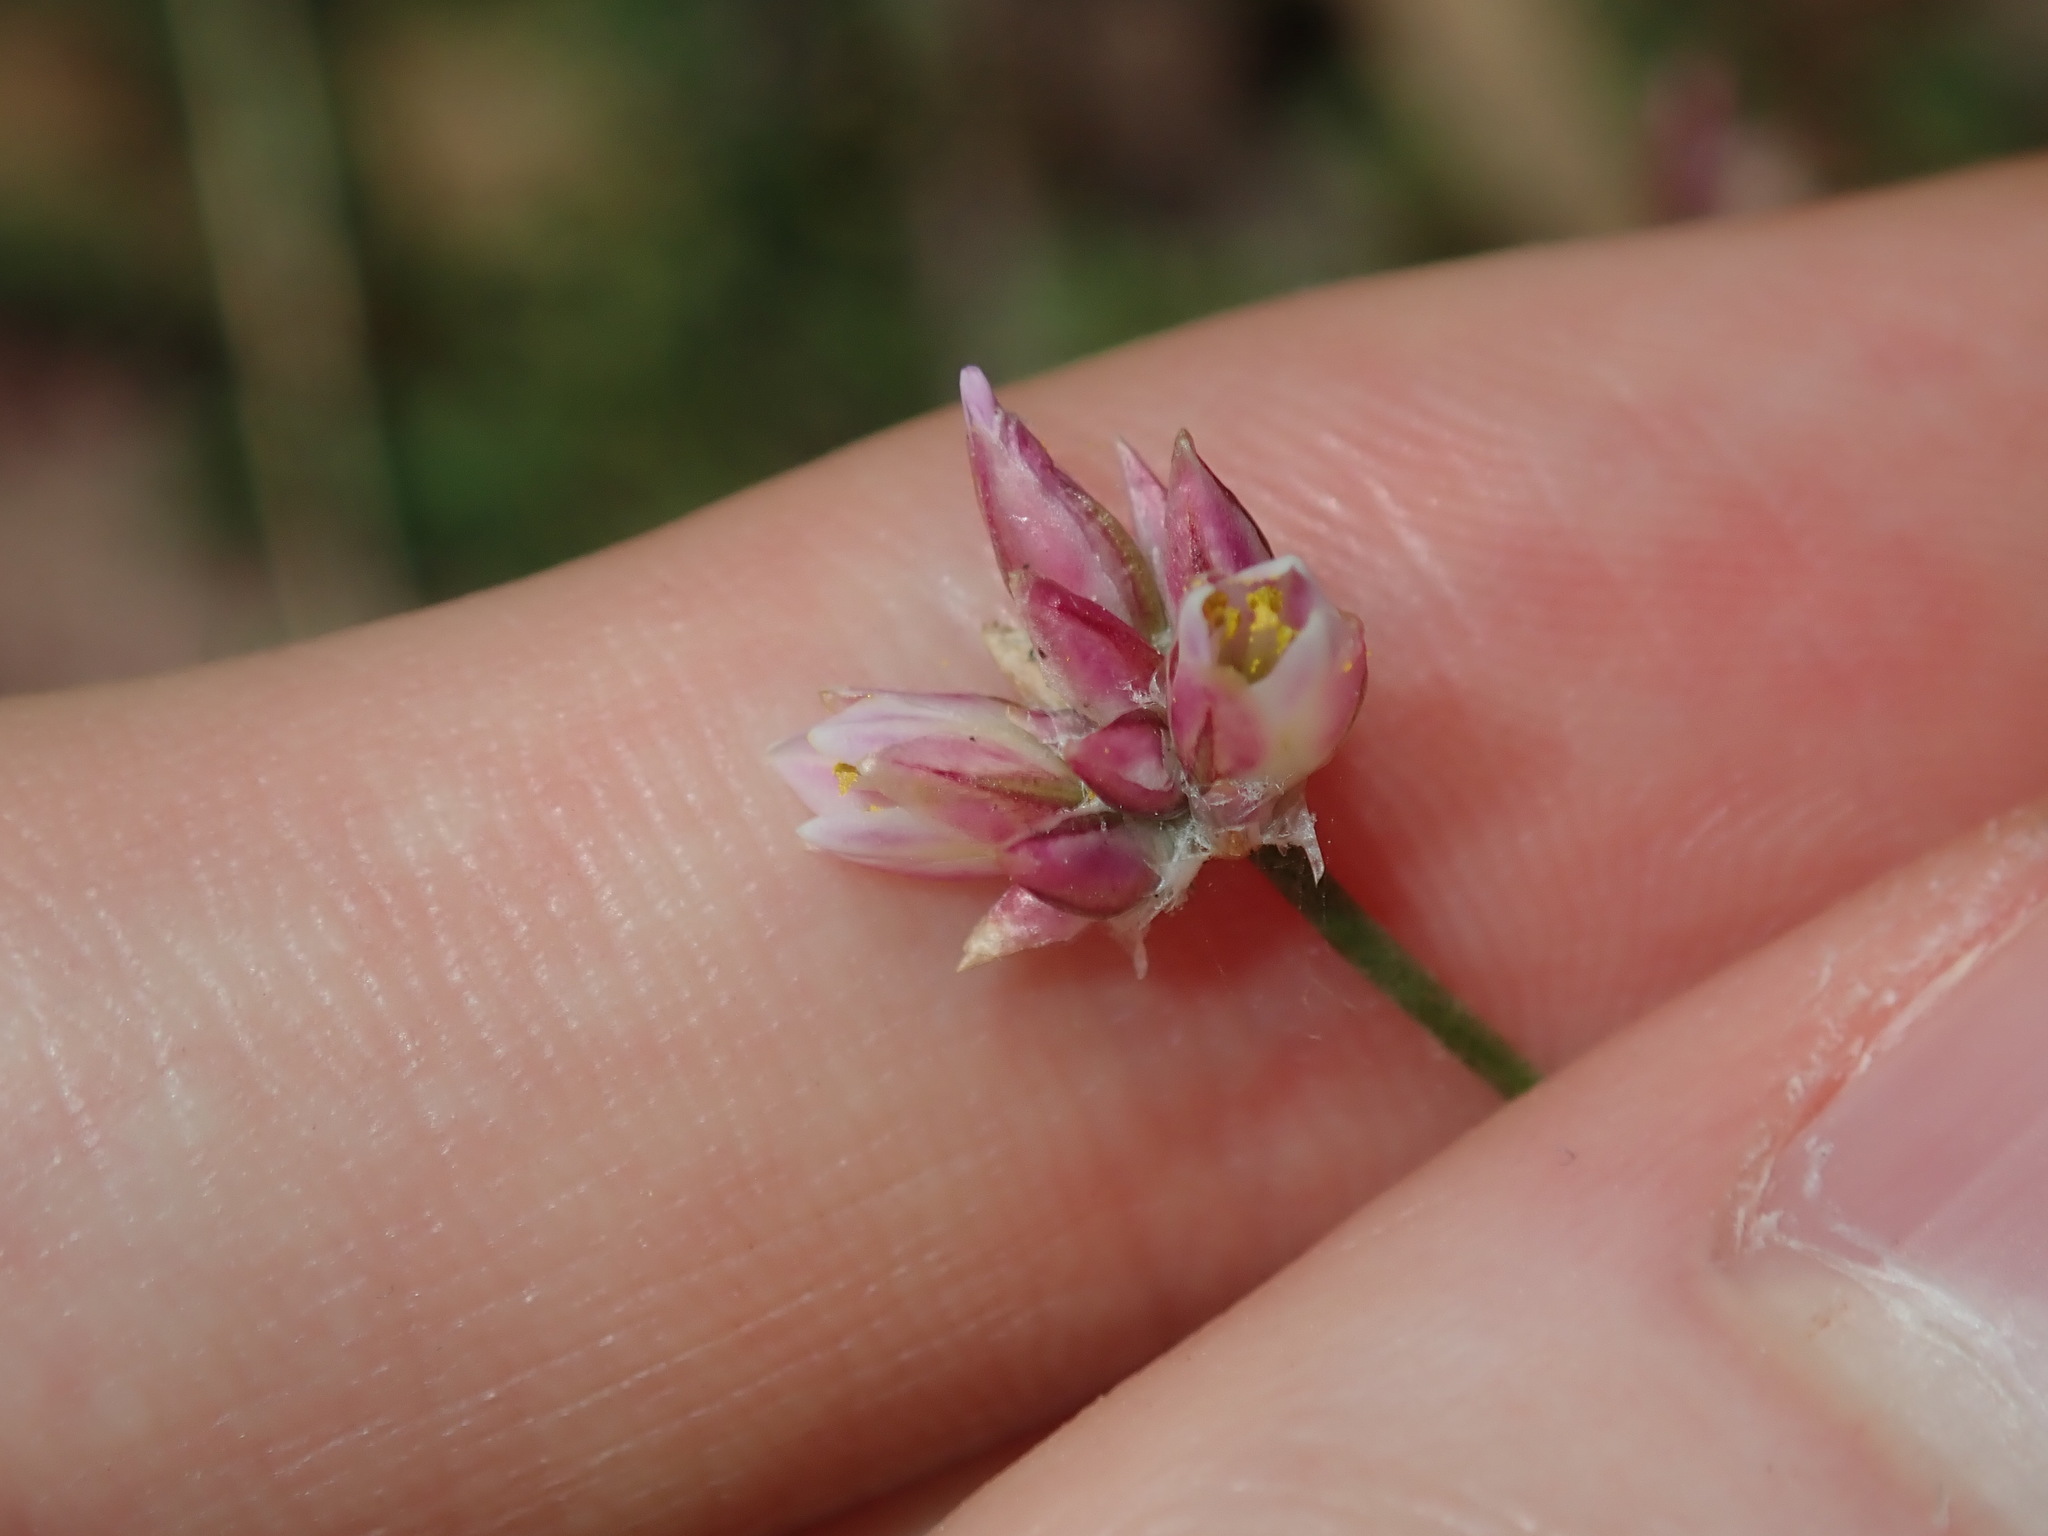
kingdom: Plantae
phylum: Tracheophyta
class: Liliopsida
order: Asparagales
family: Asparagaceae
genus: Laxmannia
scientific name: Laxmannia gracilis
